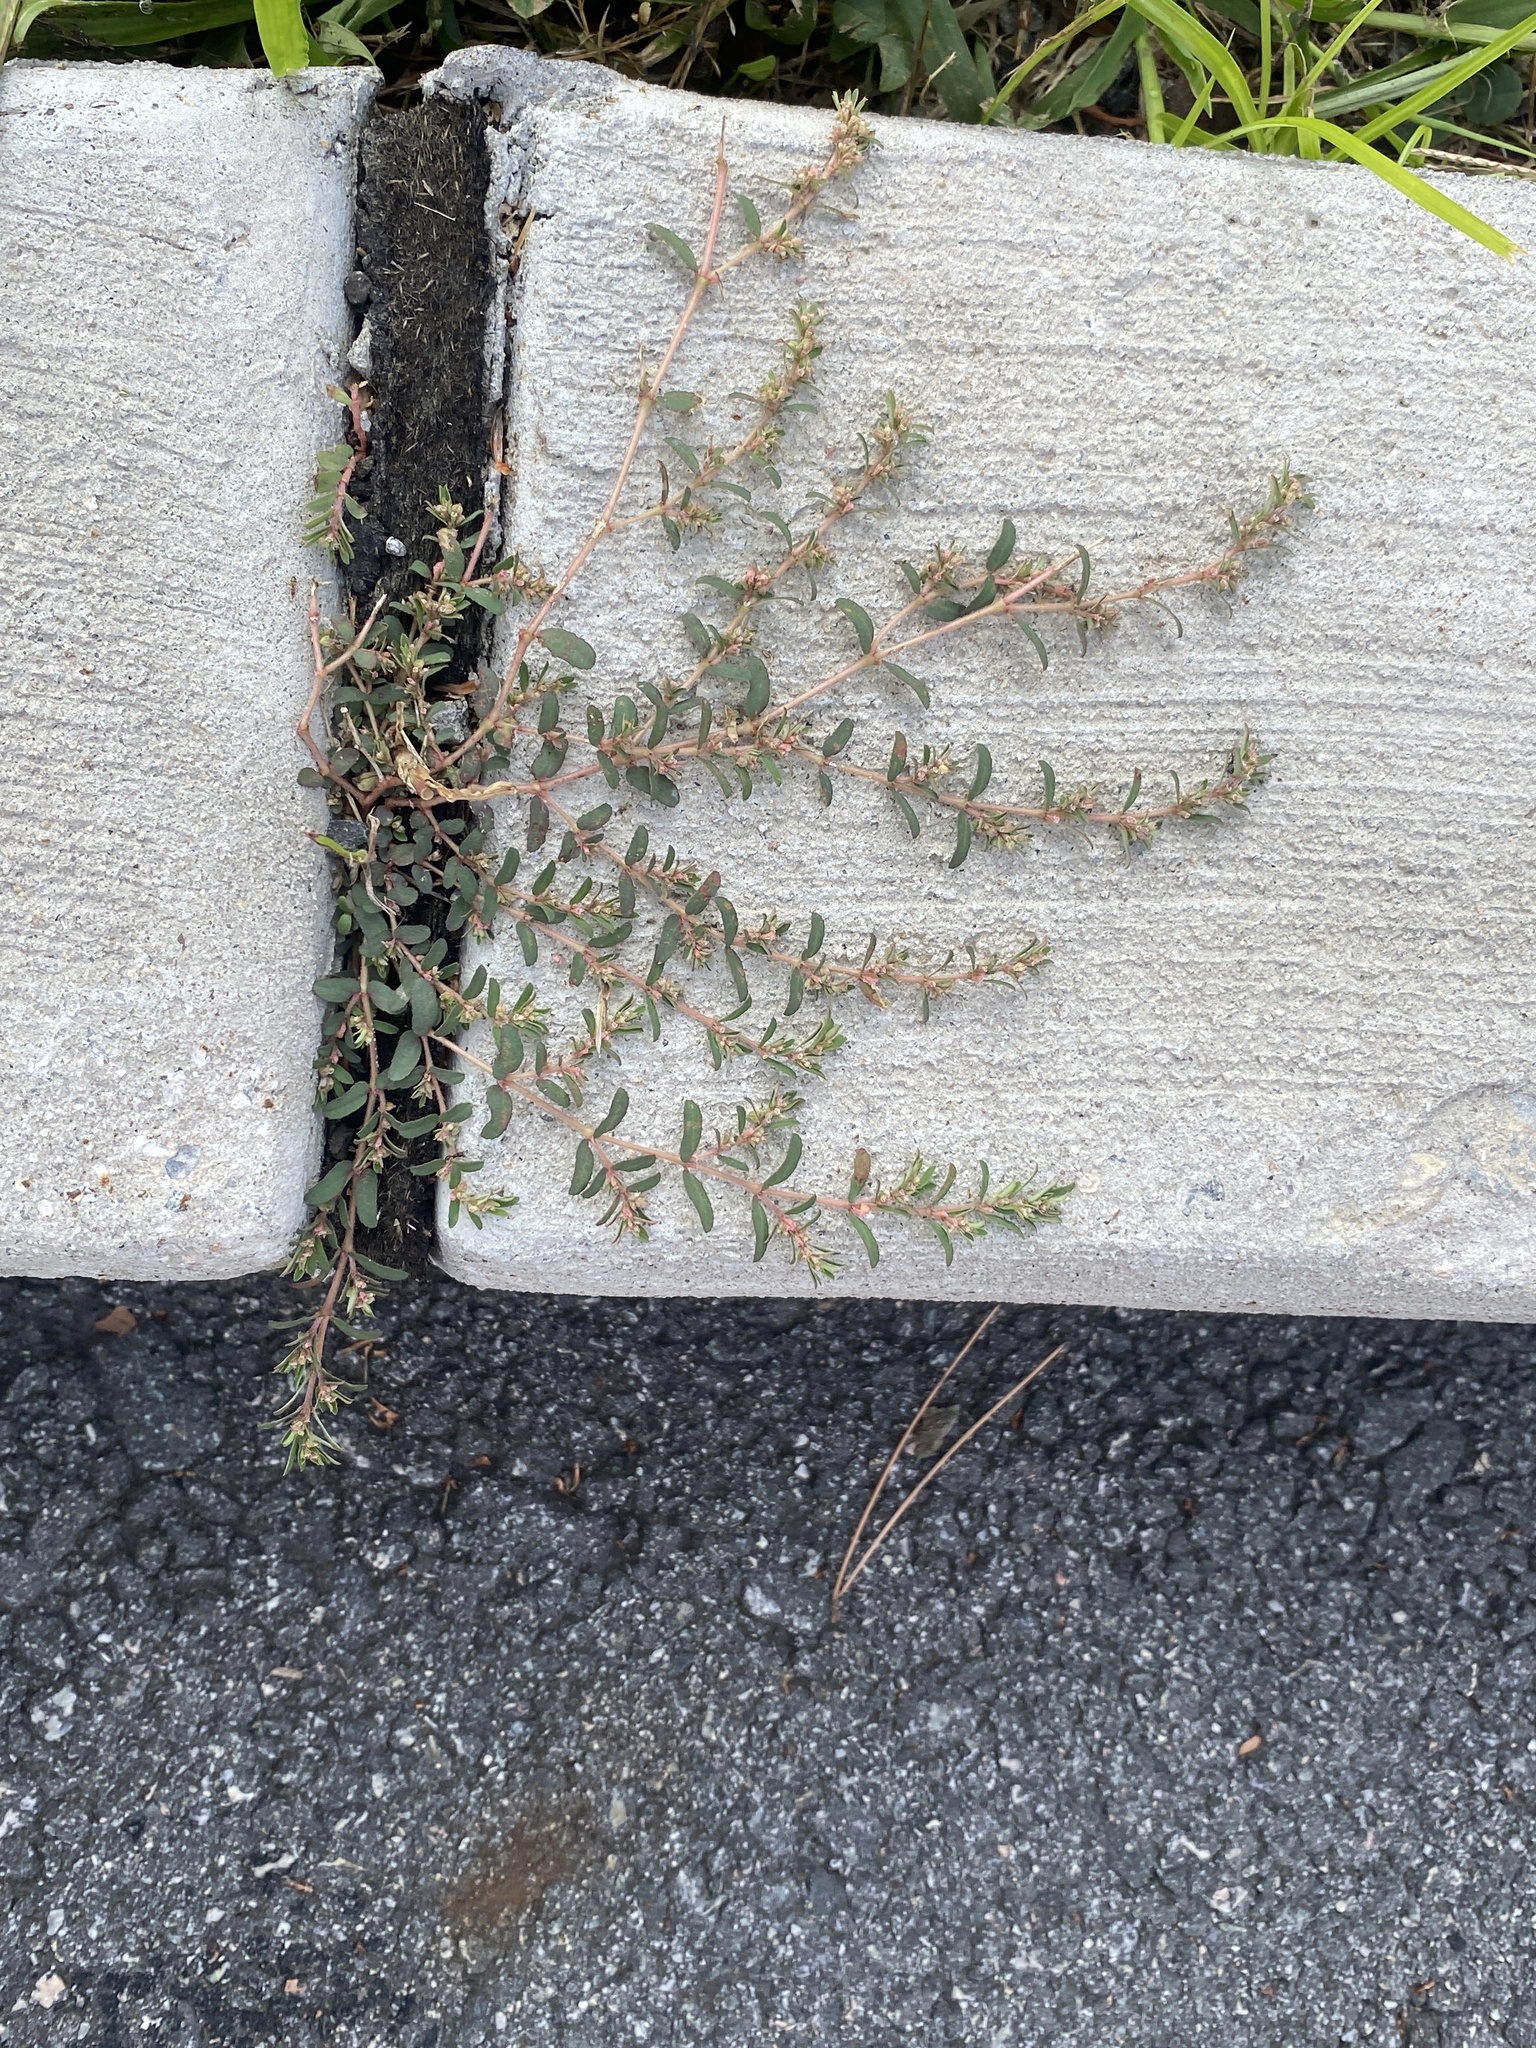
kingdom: Plantae
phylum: Tracheophyta
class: Magnoliopsida
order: Malpighiales
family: Euphorbiaceae
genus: Euphorbia
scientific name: Euphorbia maculata
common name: Spotted spurge
